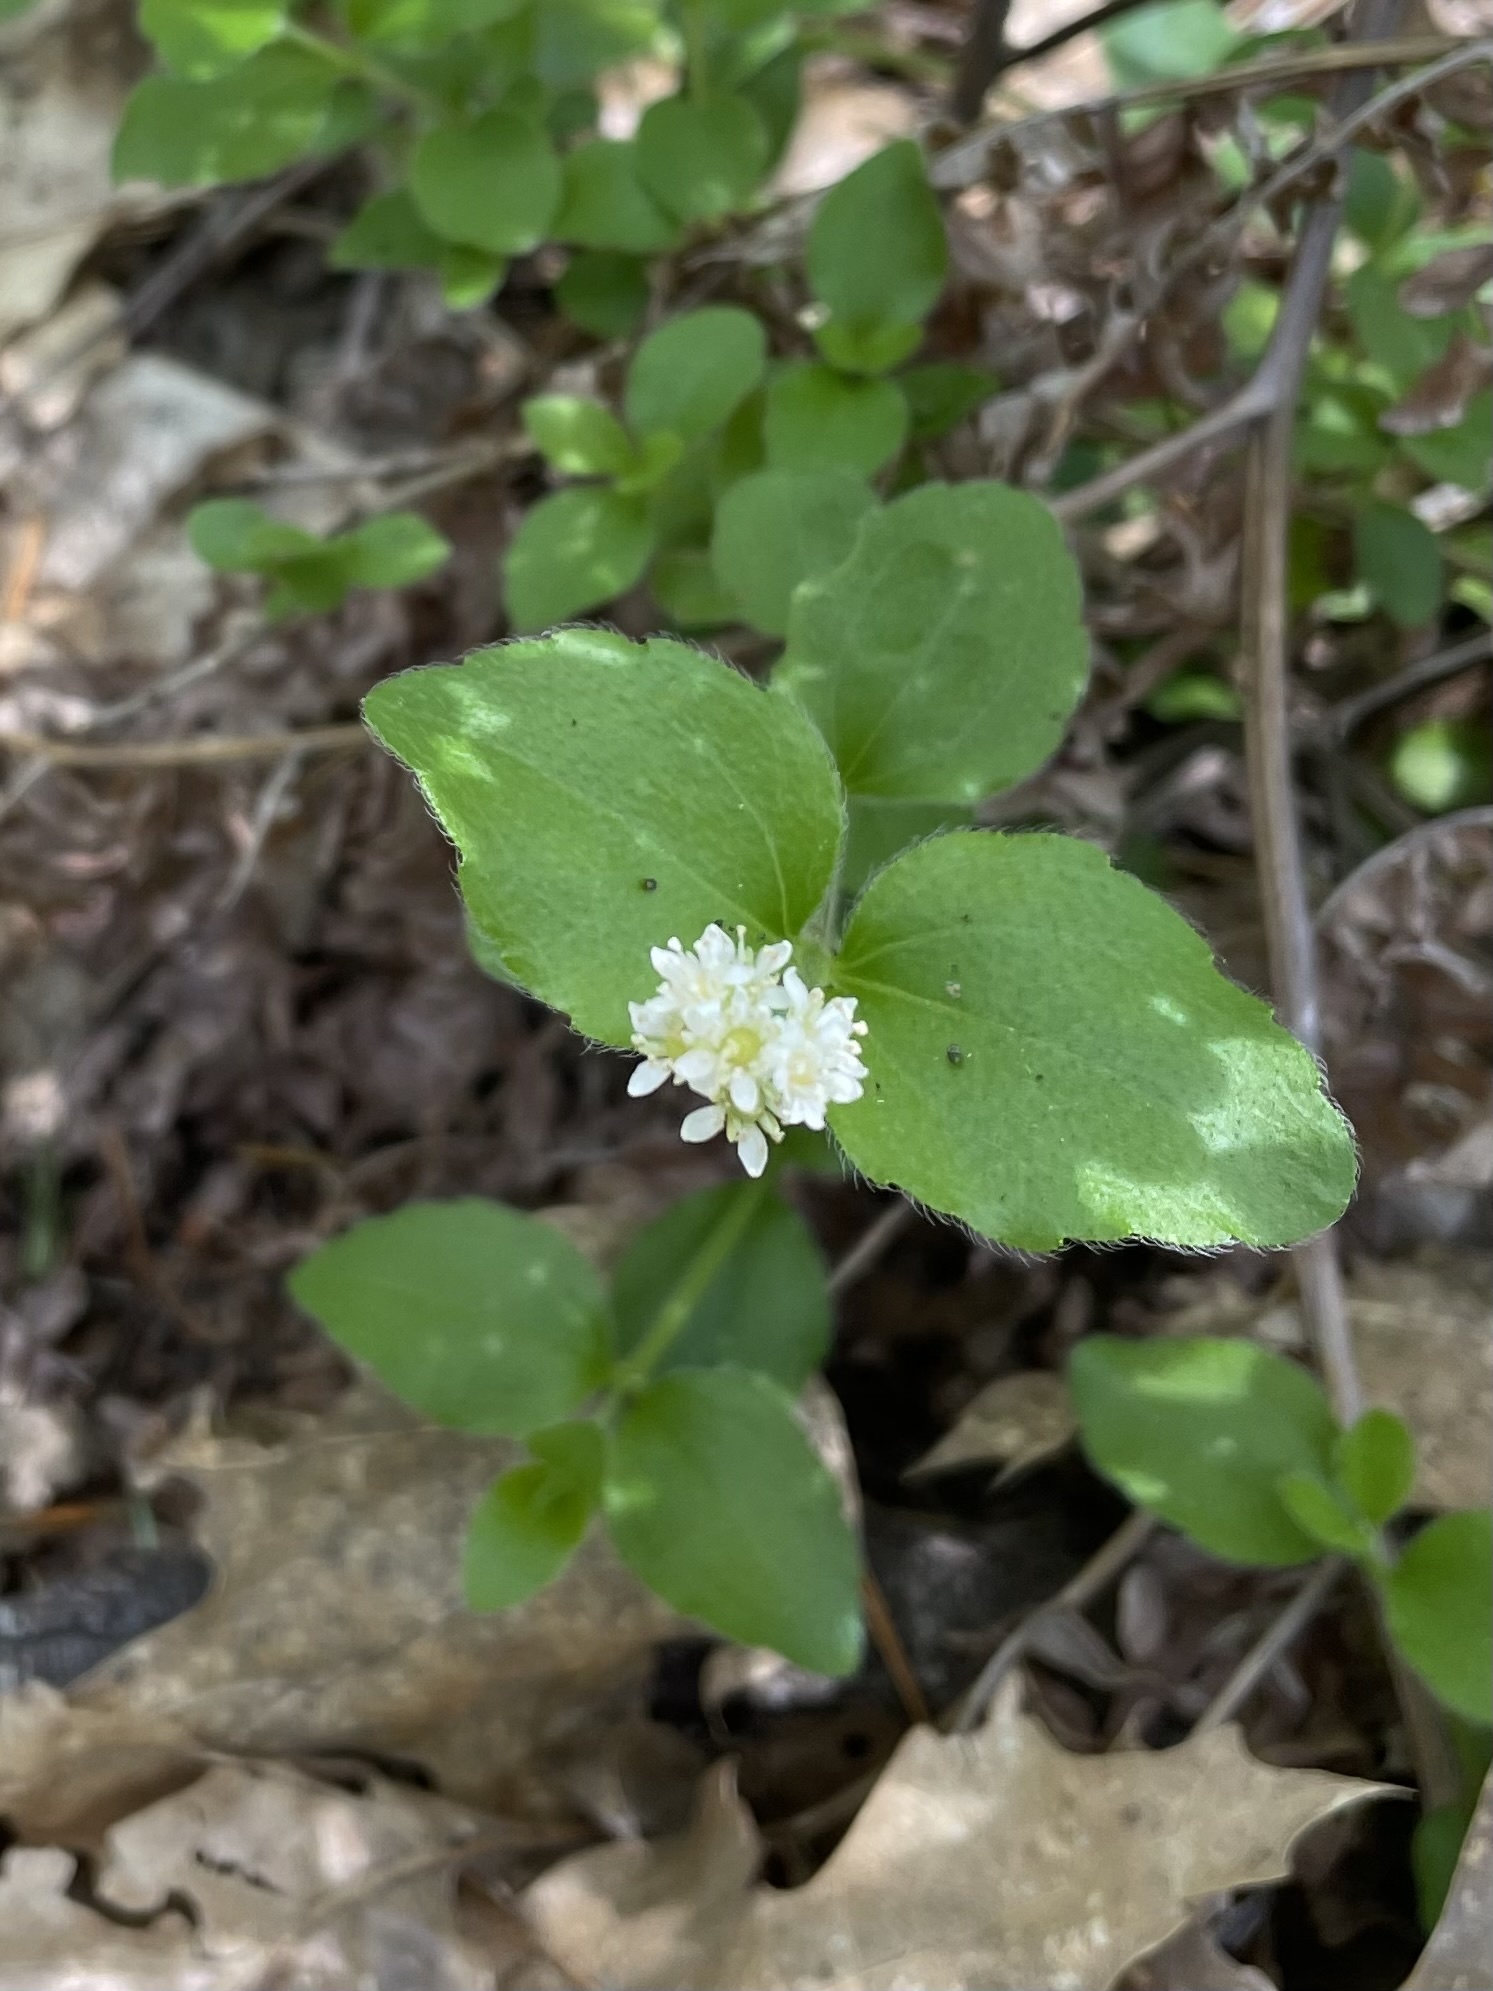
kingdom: Plantae
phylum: Tracheophyta
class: Magnoliopsida
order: Cornales
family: Hydrangeaceae
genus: Whipplea
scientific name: Whipplea modesta
